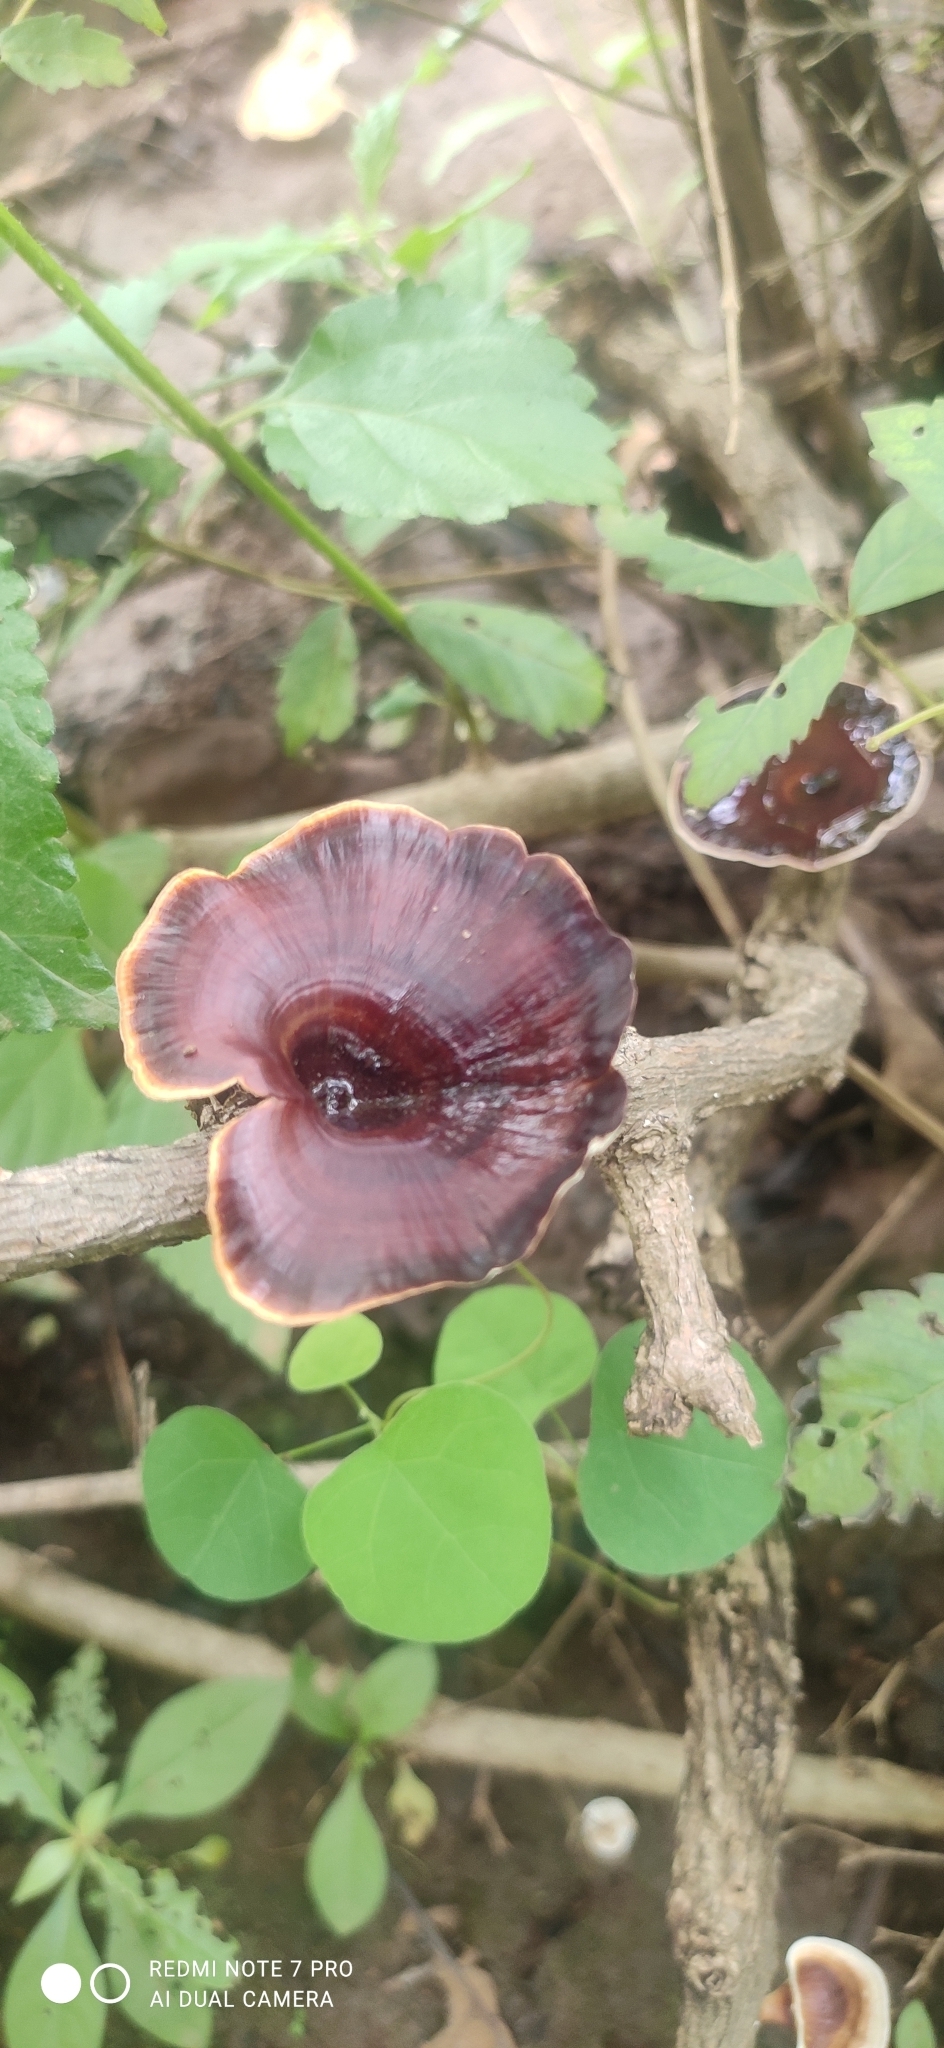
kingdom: Fungi
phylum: Basidiomycota
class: Agaricomycetes
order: Polyporales
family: Polyporaceae
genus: Microporus
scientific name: Microporus xanthopus
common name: Yellow-stemmed micropore
